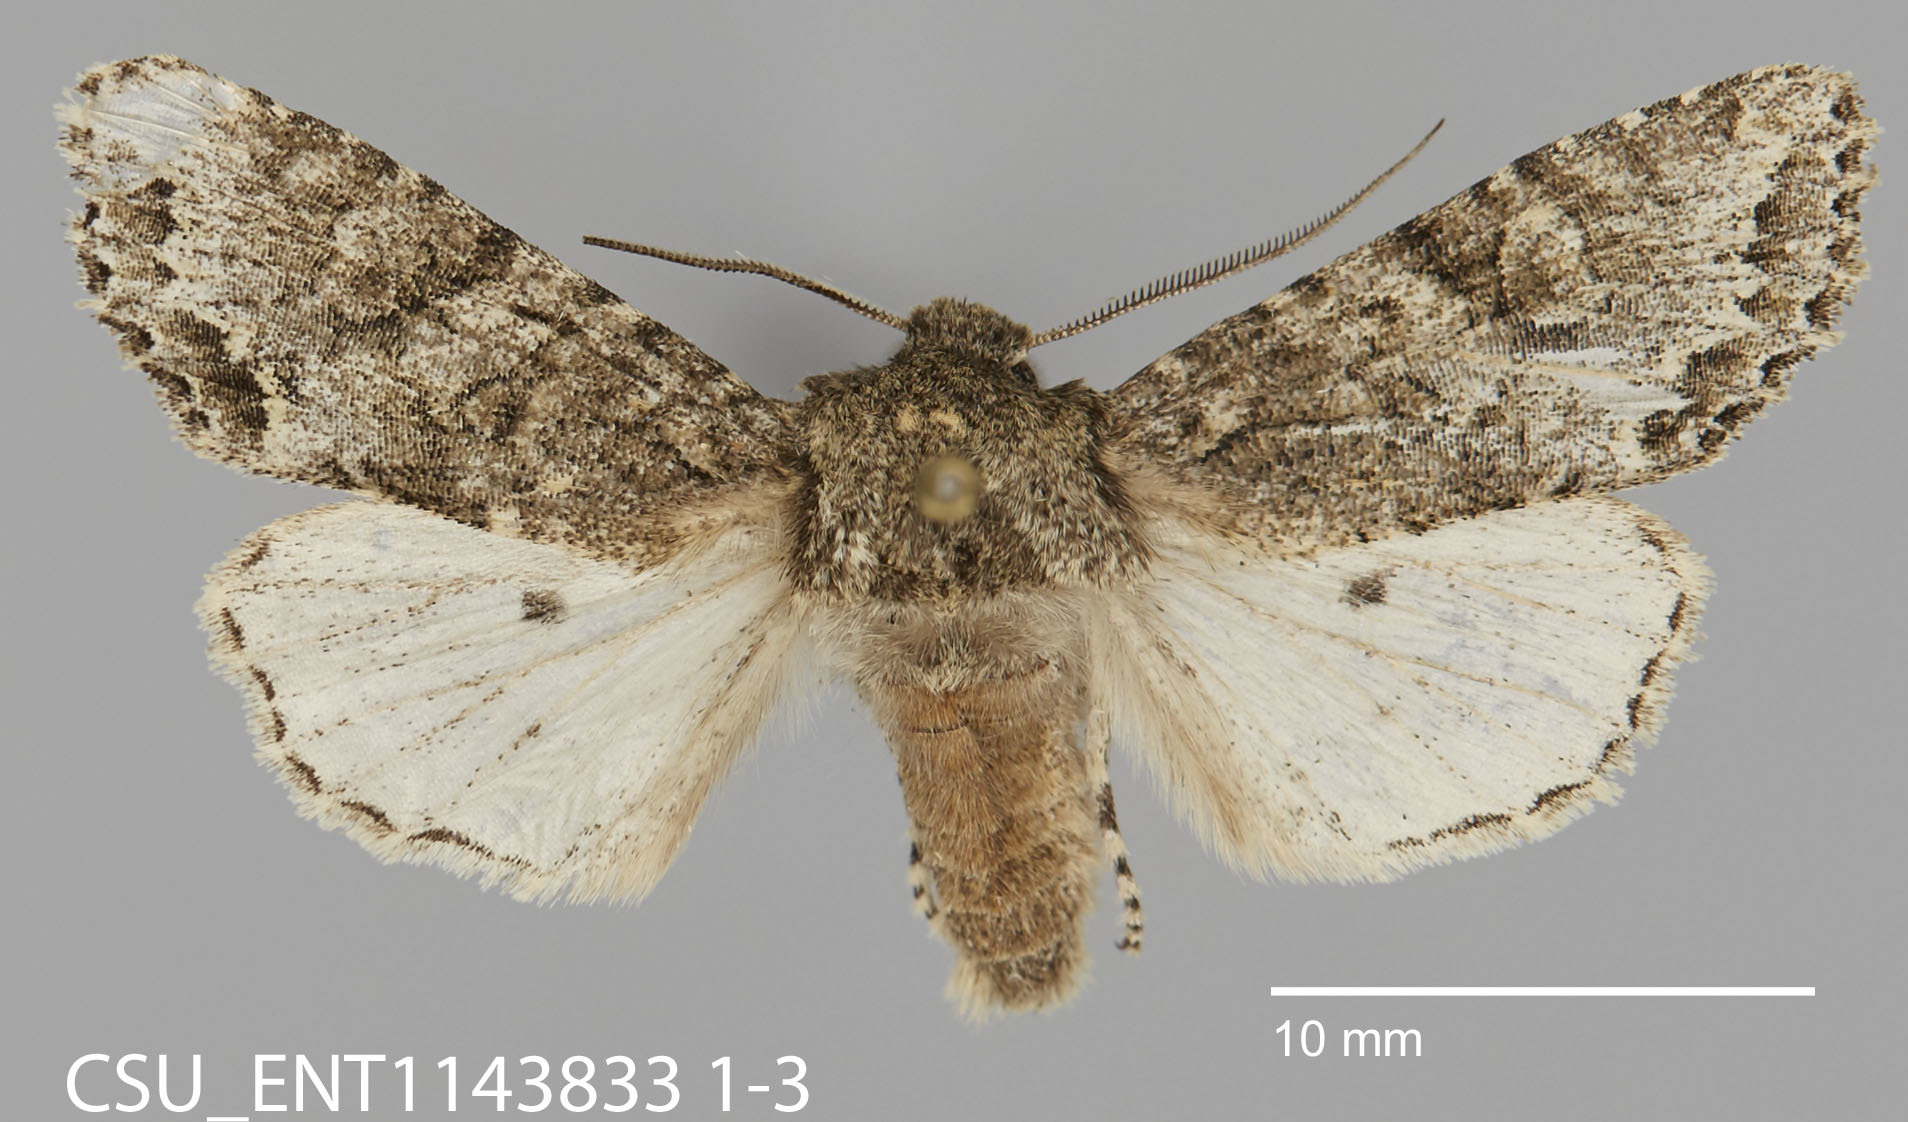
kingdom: Animalia
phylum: Arthropoda
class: Insecta
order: Lepidoptera
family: Noctuidae
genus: Egira
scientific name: Egira cognata
